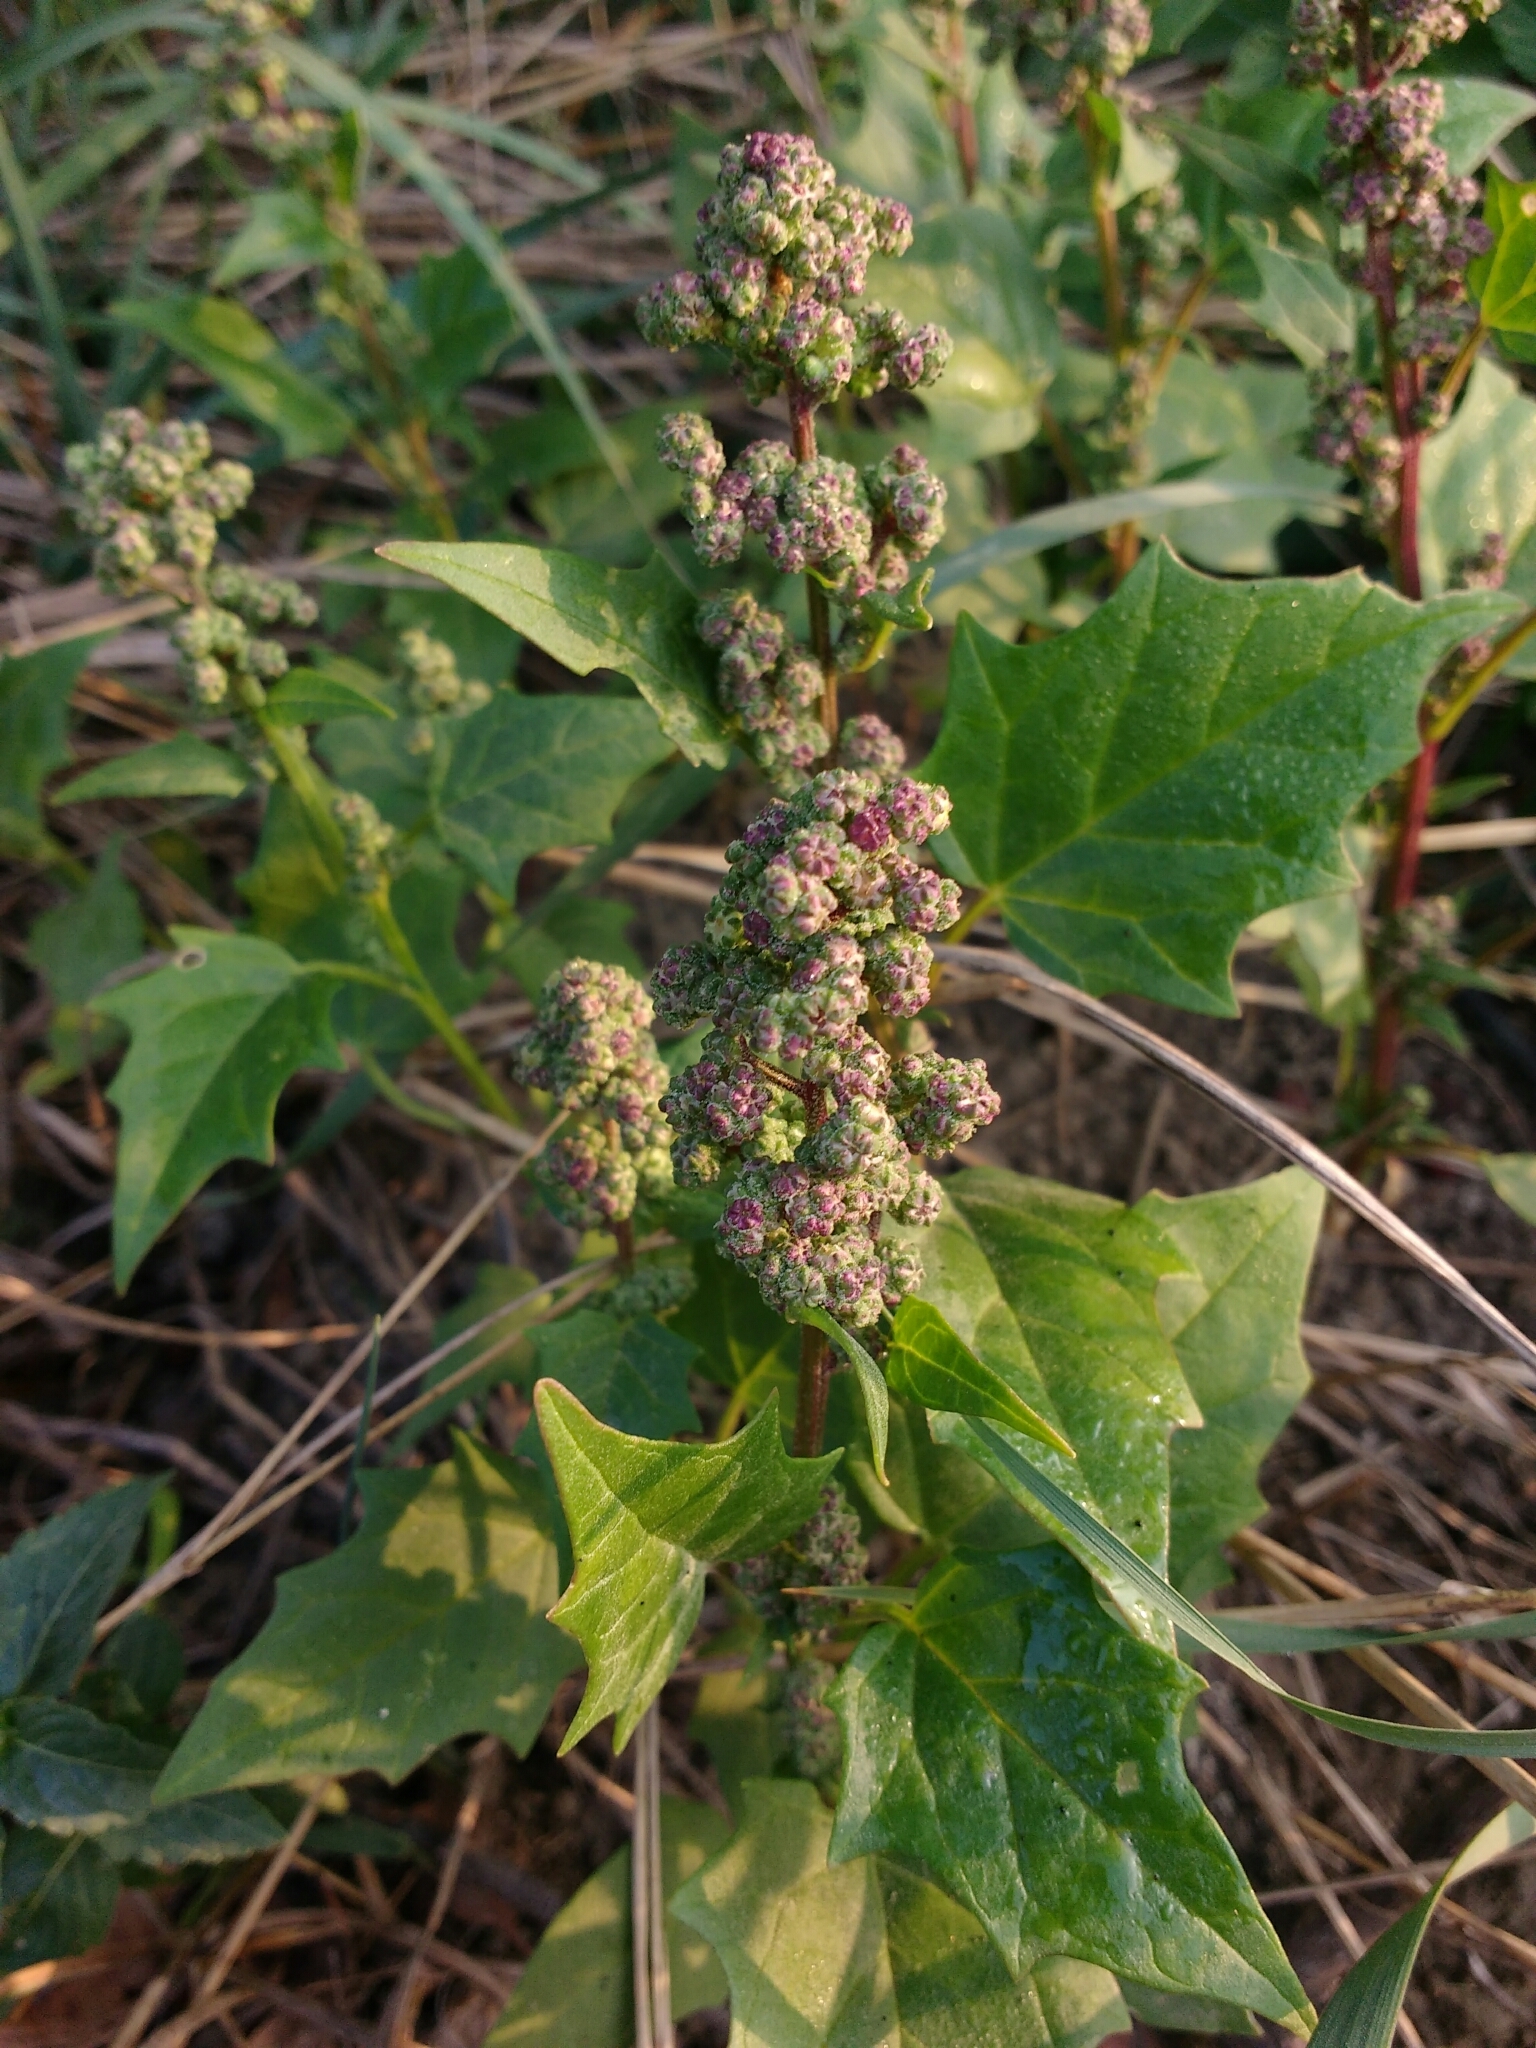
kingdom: Plantae
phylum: Tracheophyta
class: Magnoliopsida
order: Caryophyllales
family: Amaranthaceae
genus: Chenopodiastrum
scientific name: Chenopodiastrum hybridum
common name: Mapleleaf goosefoot
